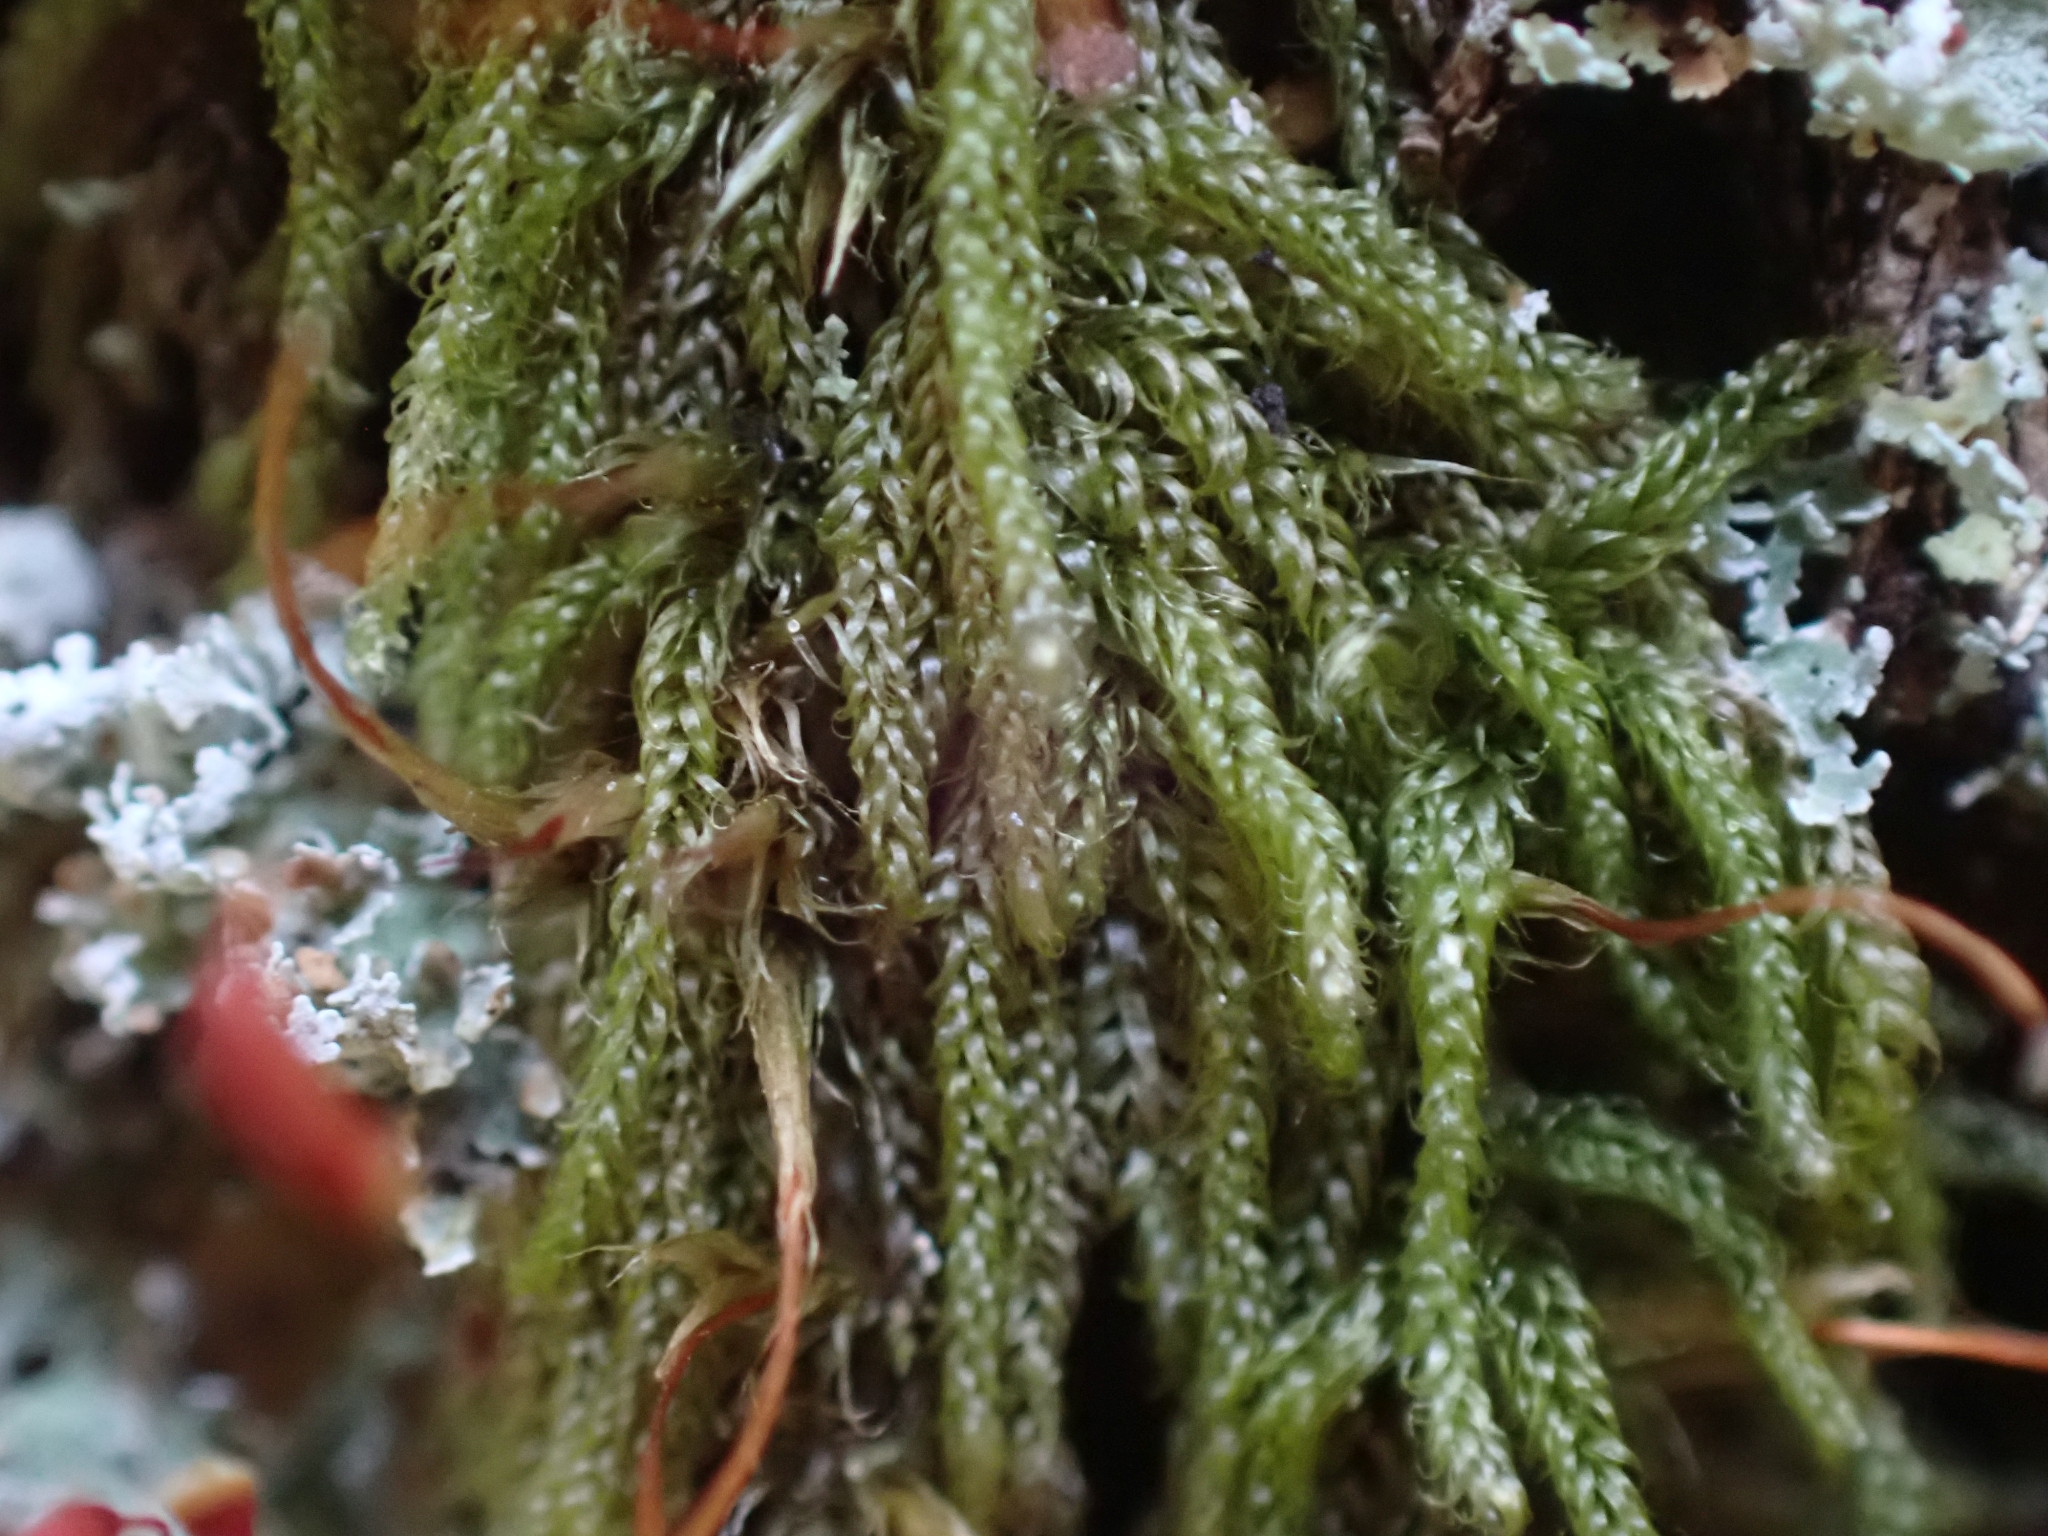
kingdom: Plantae
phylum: Bryophyta
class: Bryopsida
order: Hypnales
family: Pylaisiadelphaceae
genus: Trochophyllohypnum
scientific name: Trochophyllohypnum circinale
